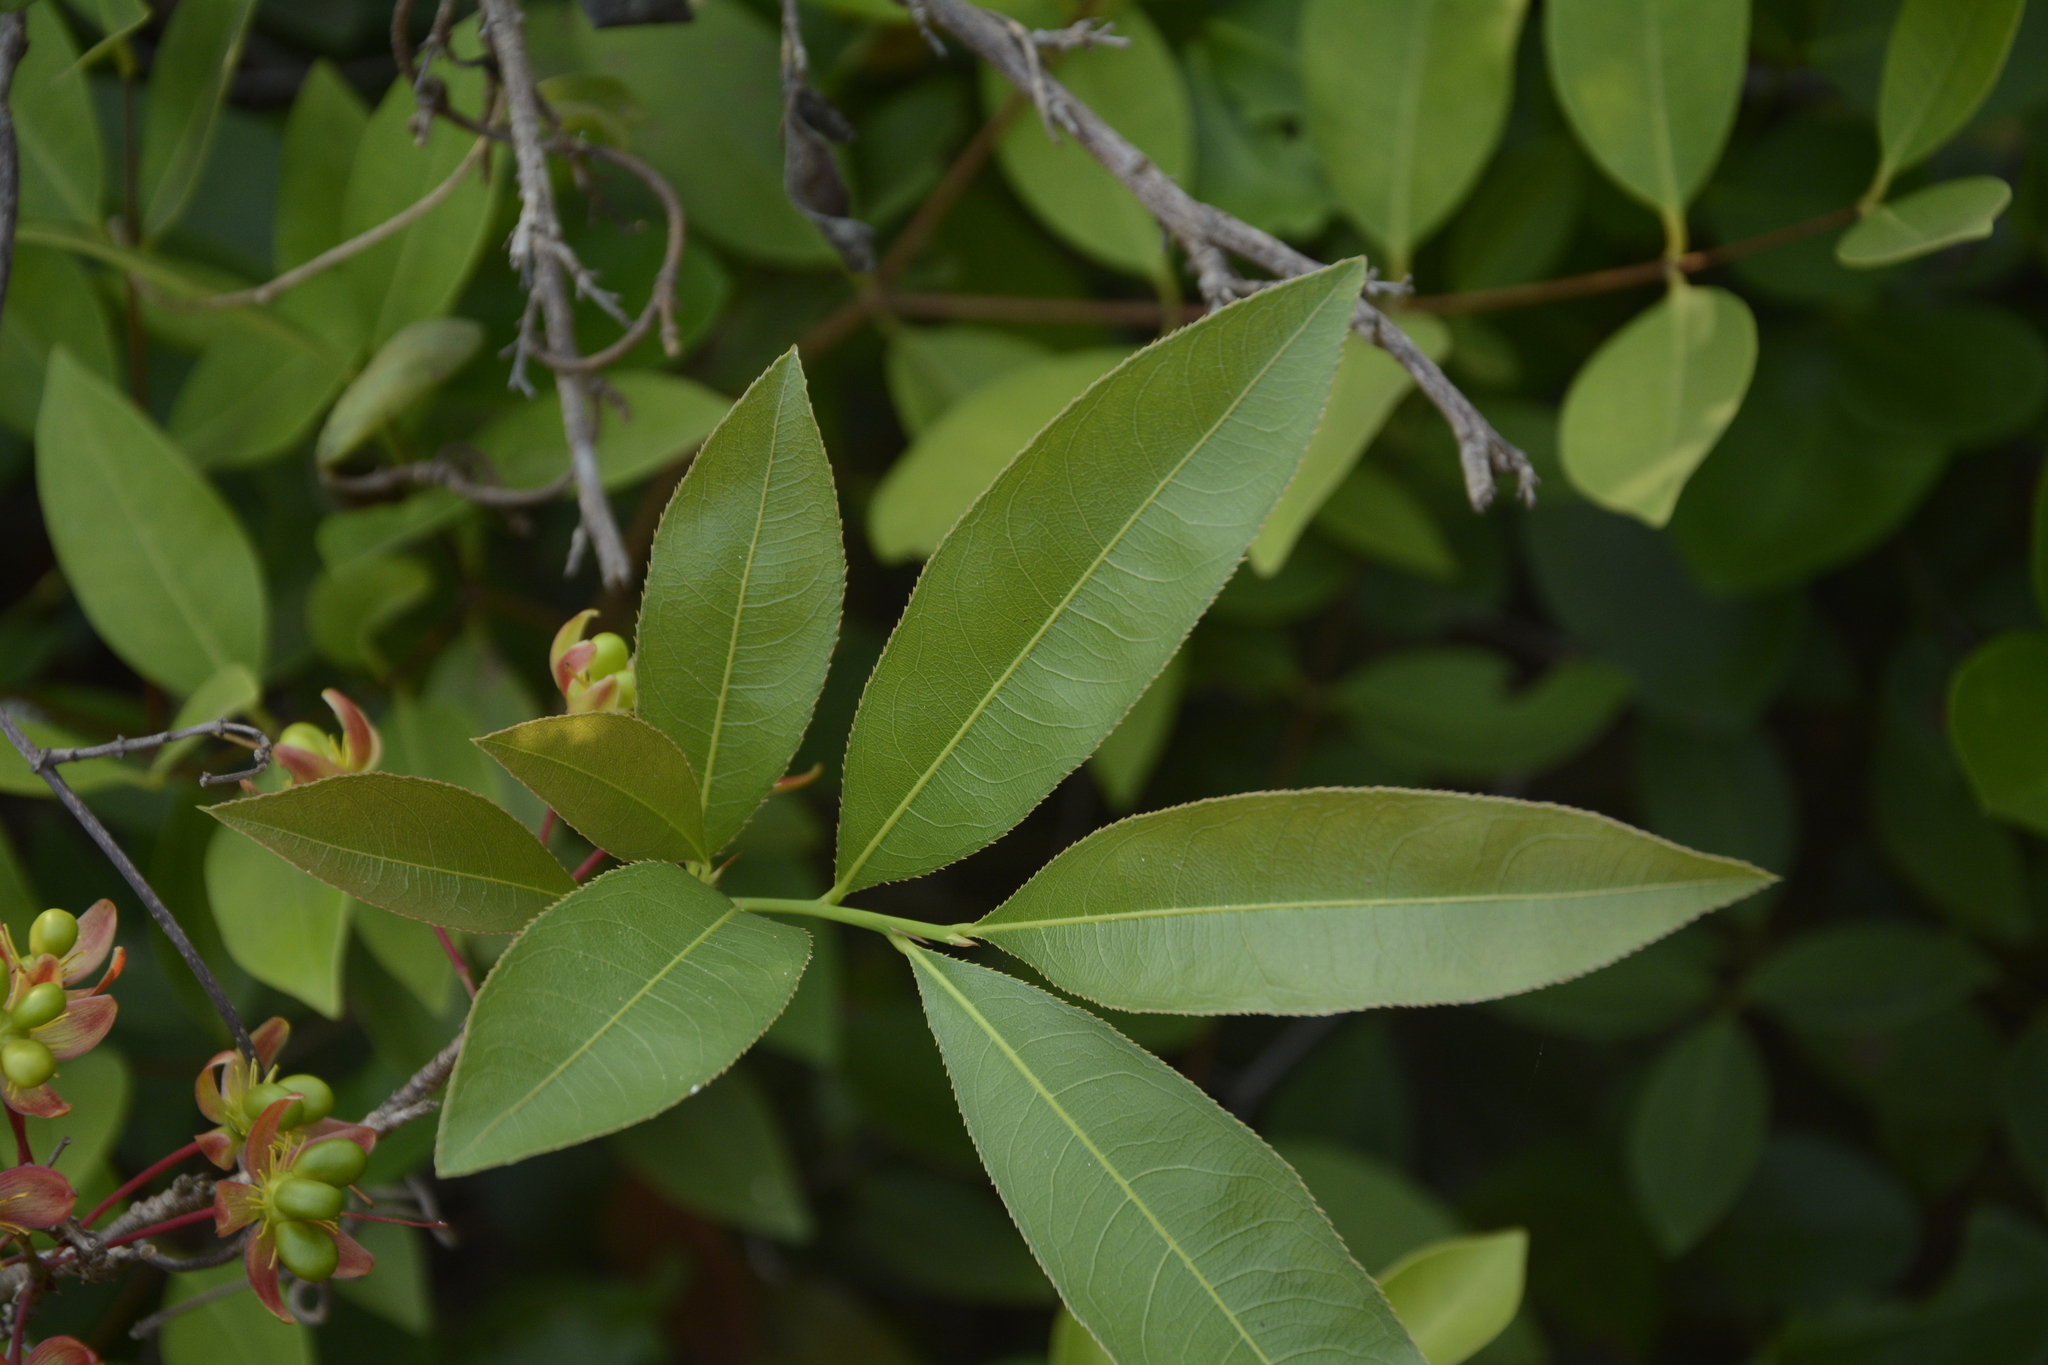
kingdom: Plantae
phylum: Tracheophyta
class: Magnoliopsida
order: Malpighiales
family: Ochnaceae
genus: Ochna
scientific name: Ochna lanceolata
